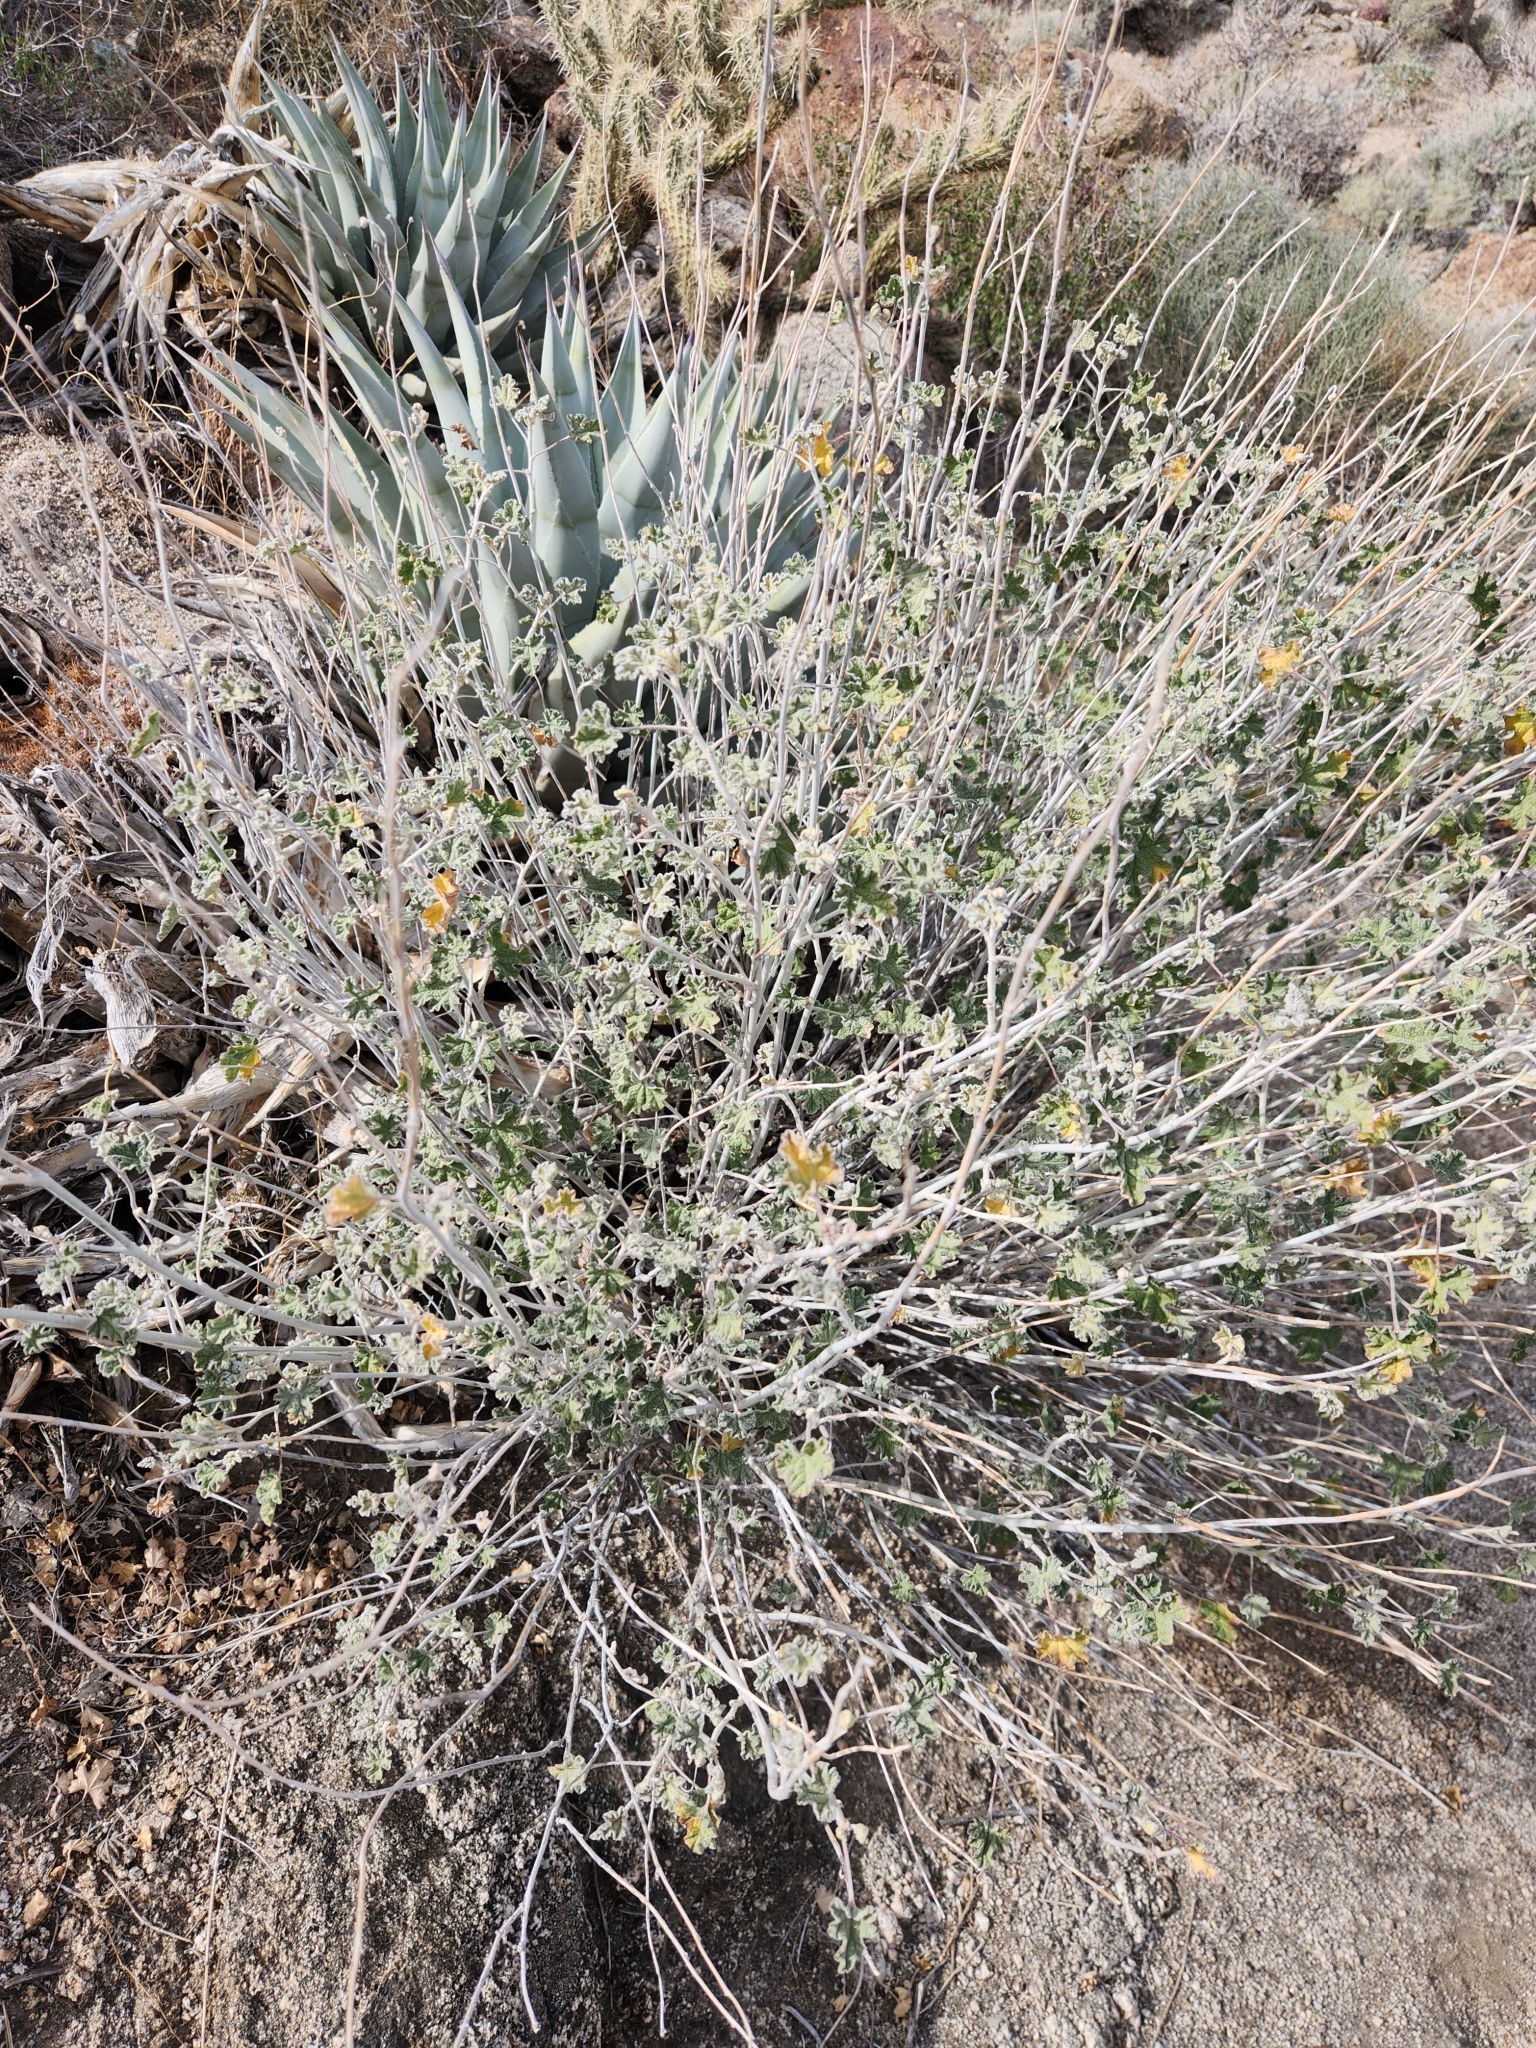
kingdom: Plantae
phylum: Tracheophyta
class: Magnoliopsida
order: Malvales
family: Malvaceae
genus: Sphaeralcea
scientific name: Sphaeralcea ambigua
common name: Apricot globe-mallow
